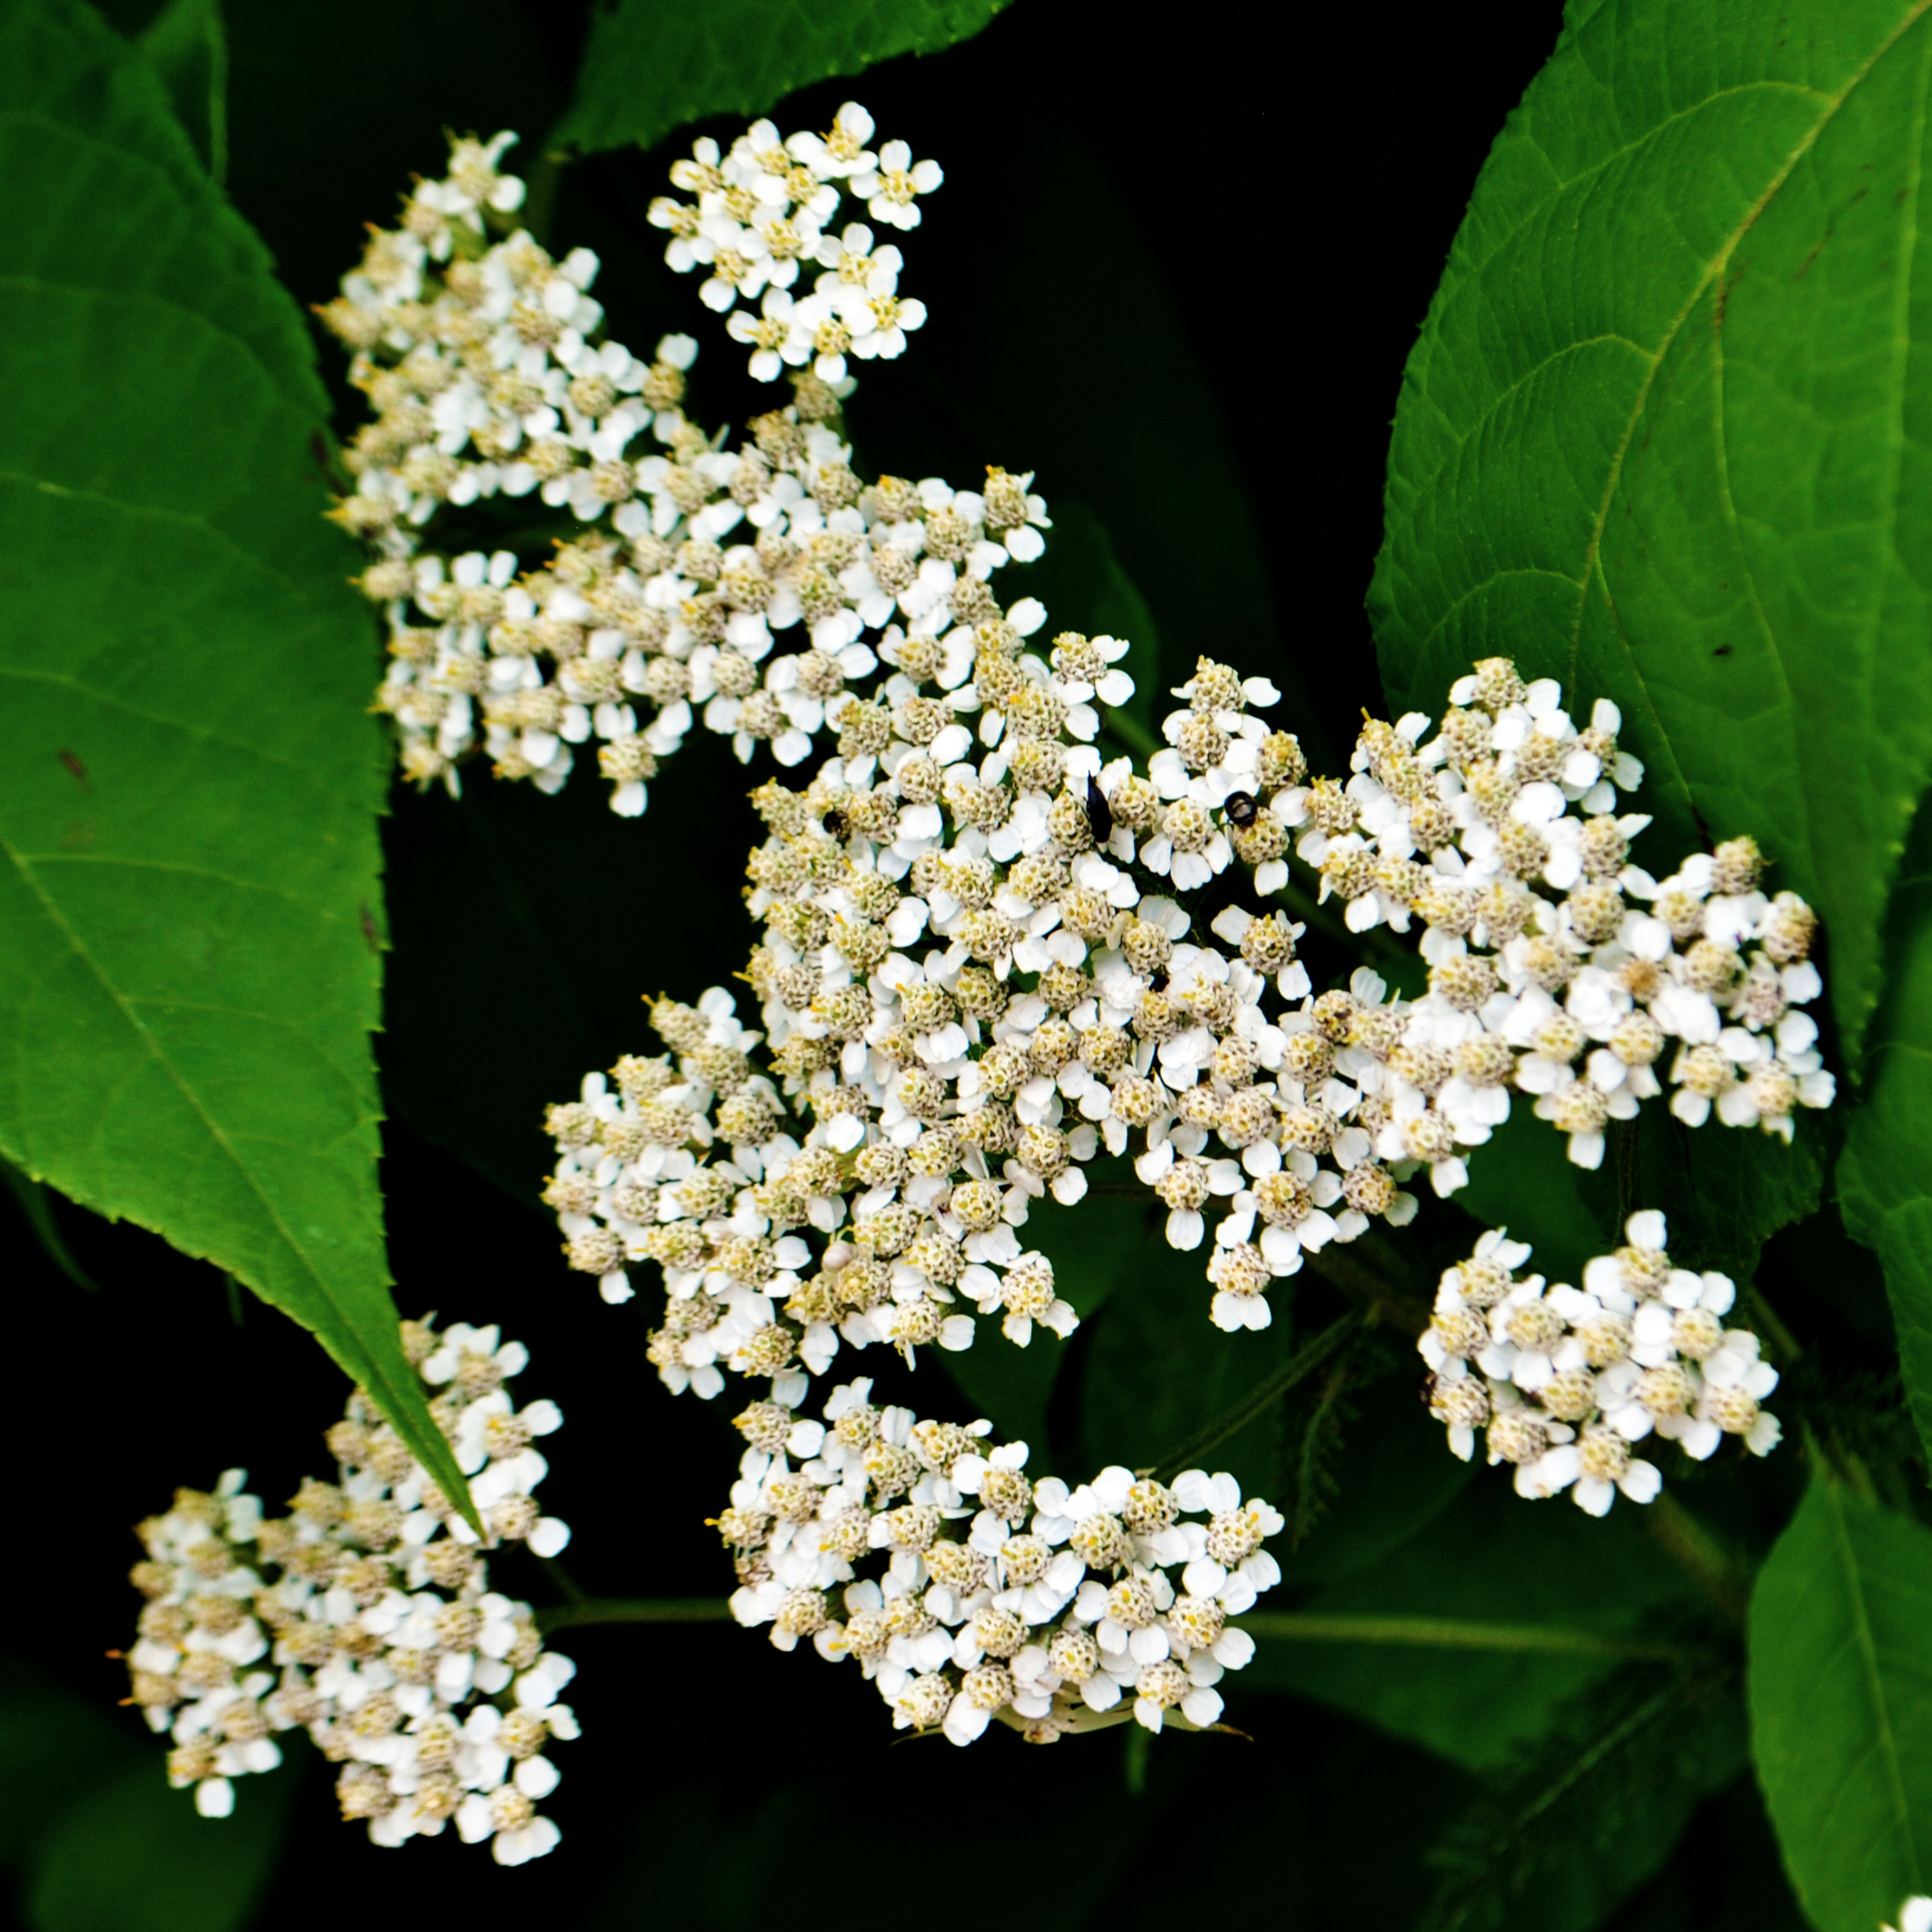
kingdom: Plantae
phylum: Tracheophyta
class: Magnoliopsida
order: Asterales
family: Asteraceae
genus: Achillea
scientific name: Achillea millefolium
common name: Yarrow
